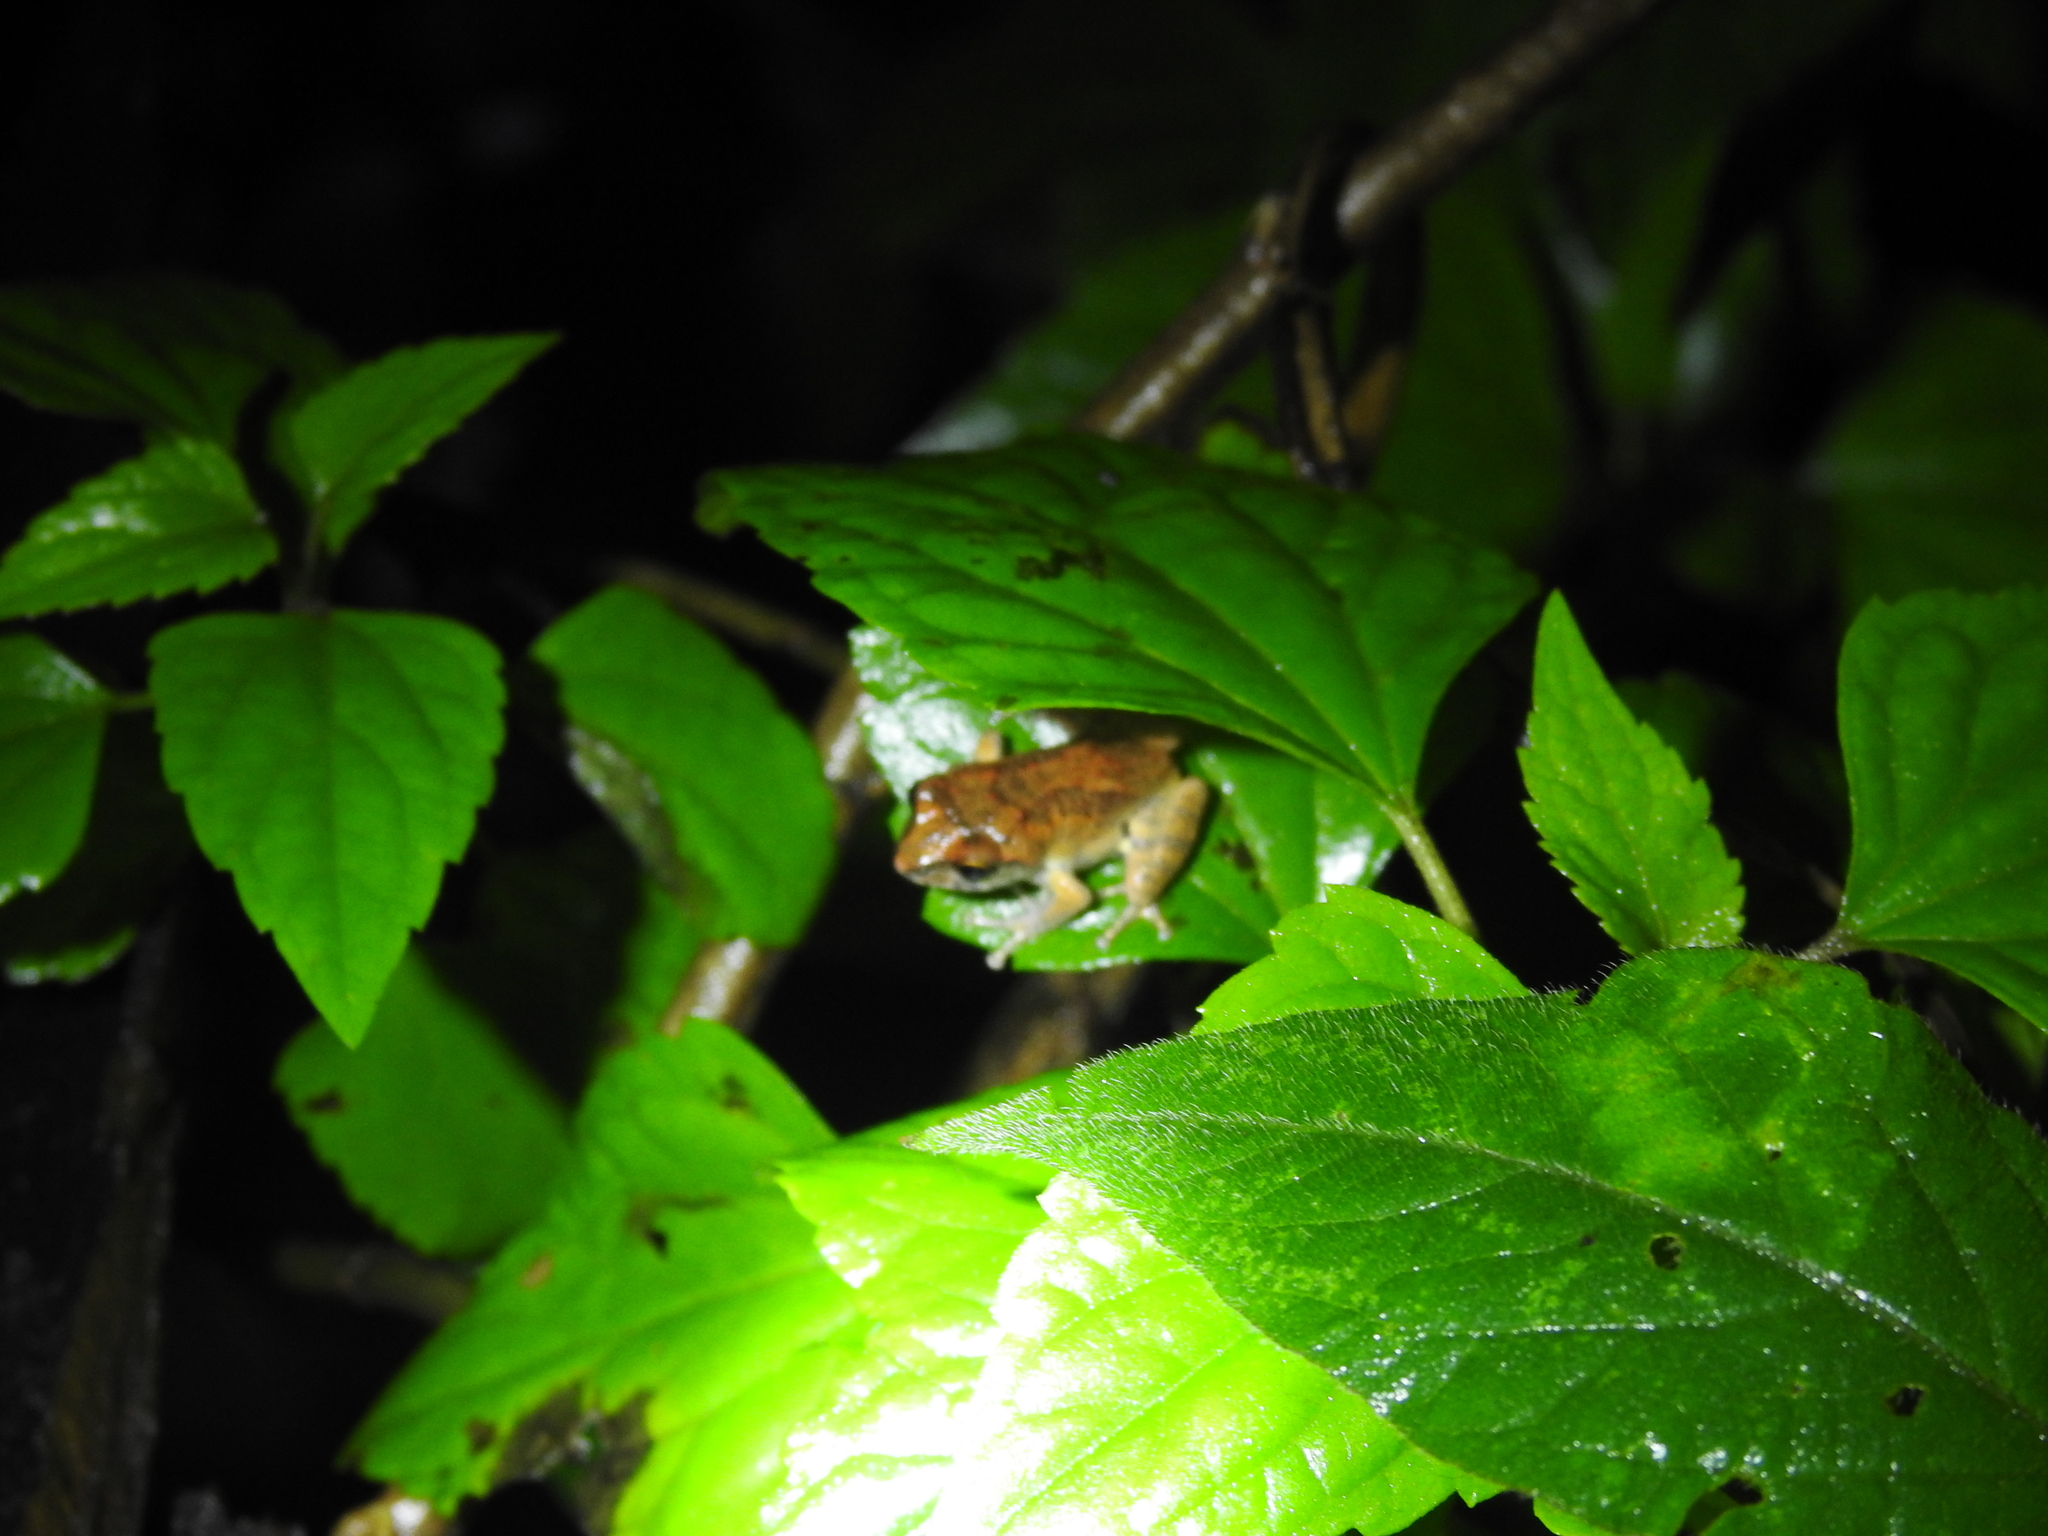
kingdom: Animalia
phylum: Chordata
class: Amphibia
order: Anura
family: Rhacophoridae
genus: Raorchestes
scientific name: Raorchestes dubois
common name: Koadaikanal bush frog
